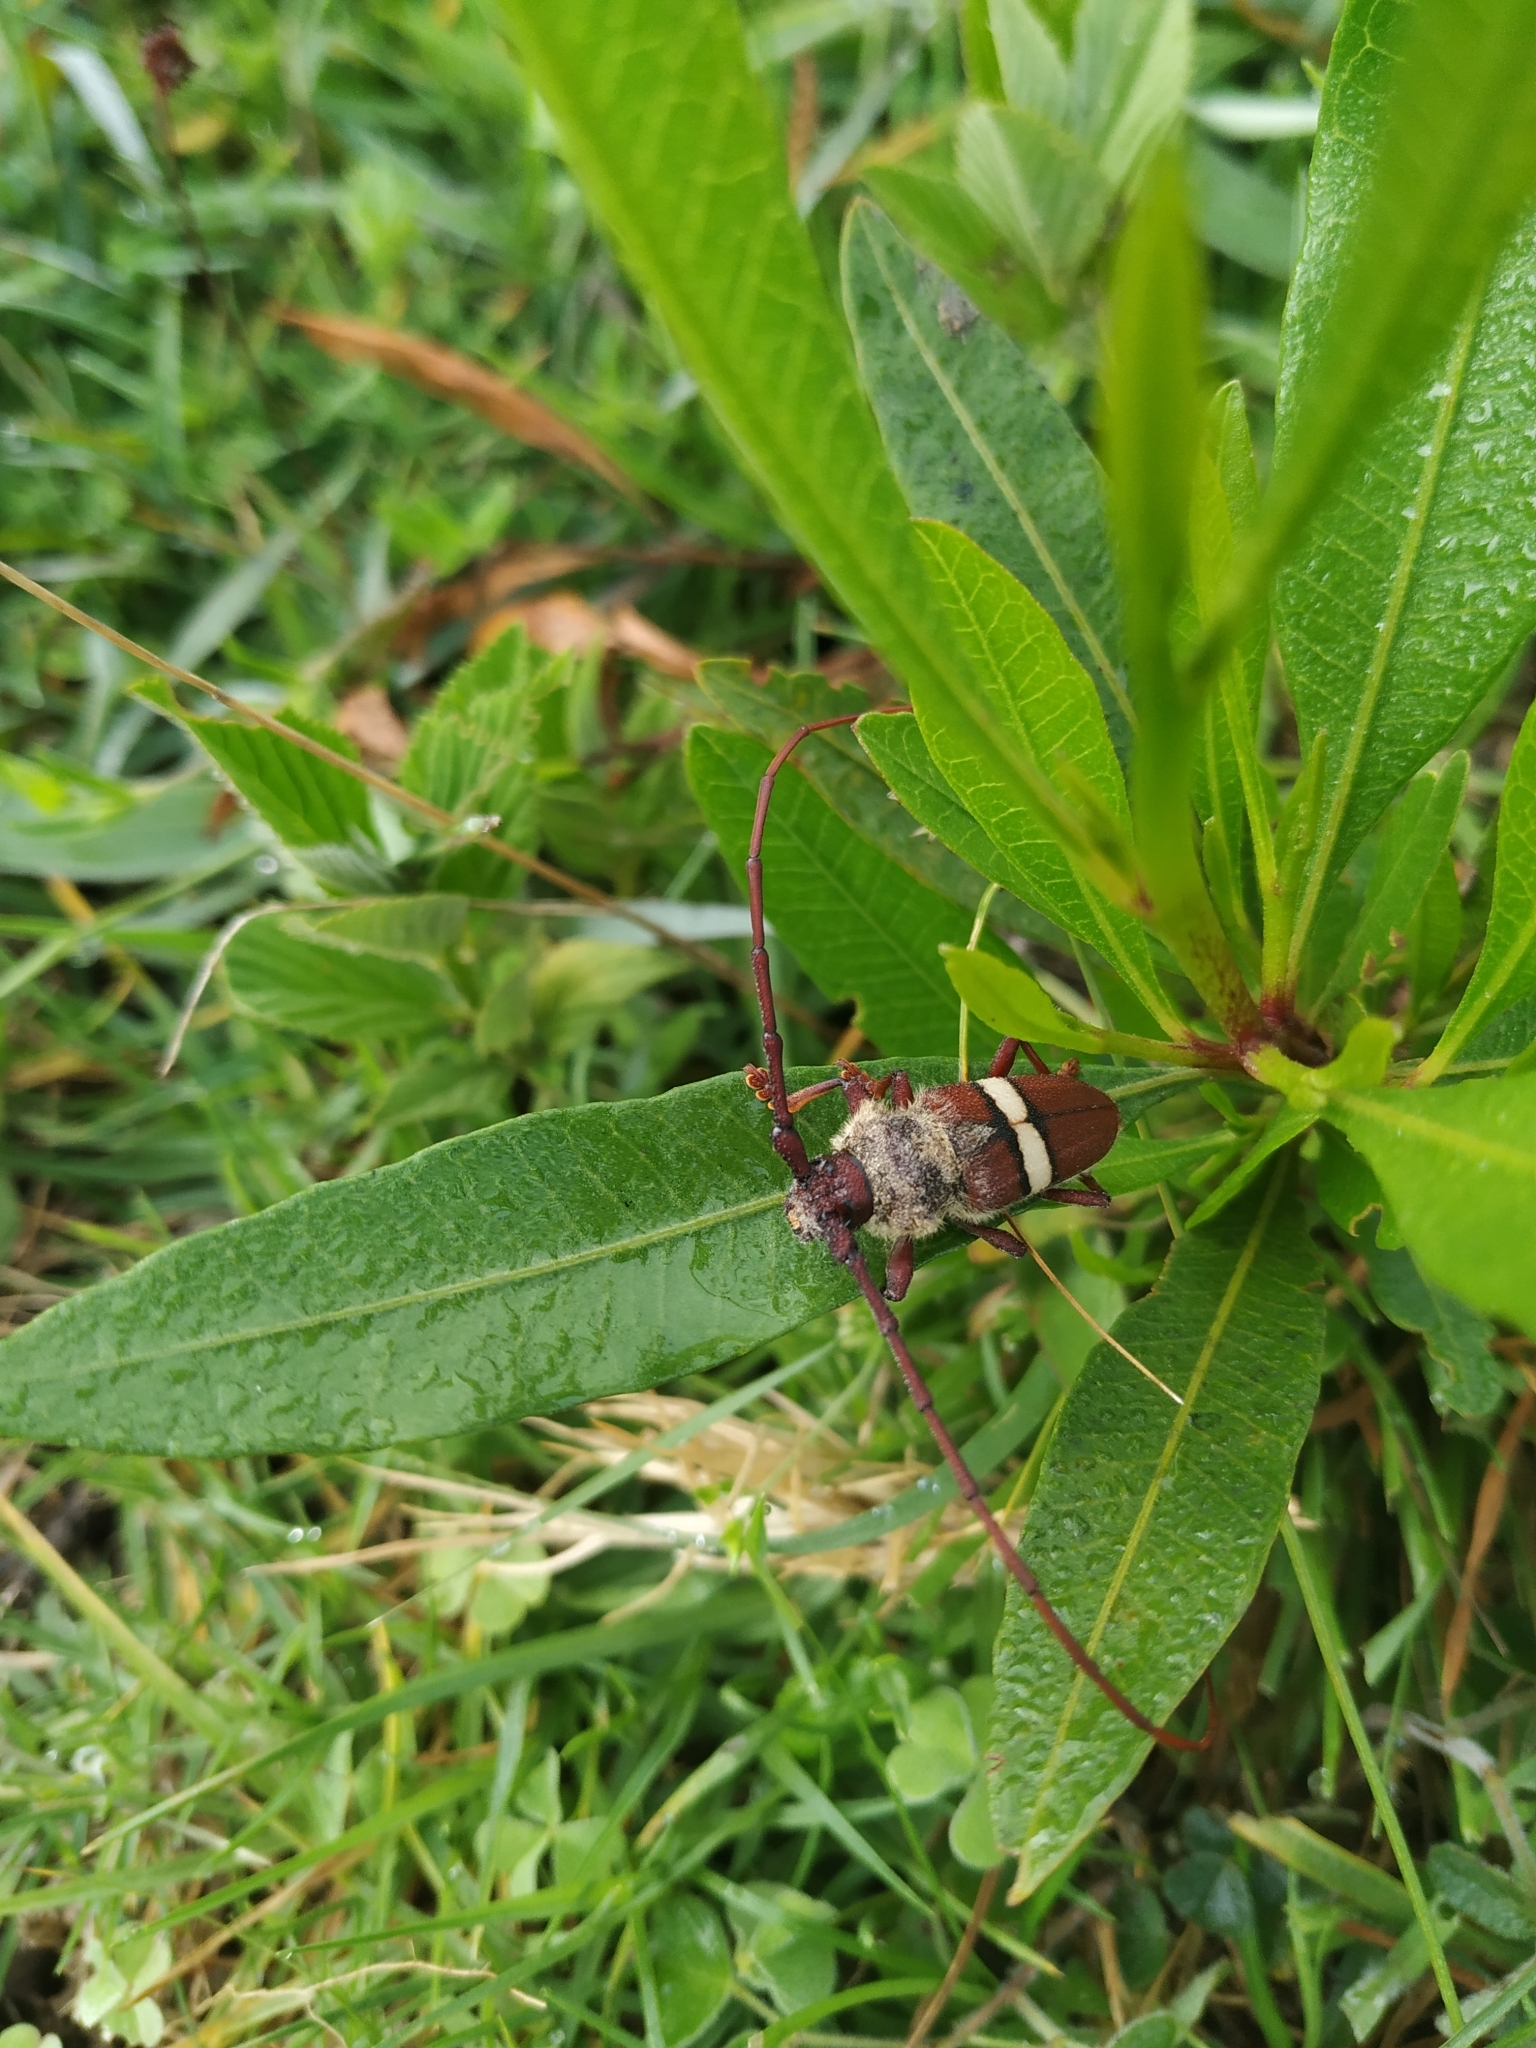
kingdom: Animalia
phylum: Arthropoda
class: Insecta
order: Coleoptera
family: Cerambycidae
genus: Deretrachys
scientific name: Deretrachys juvencus
